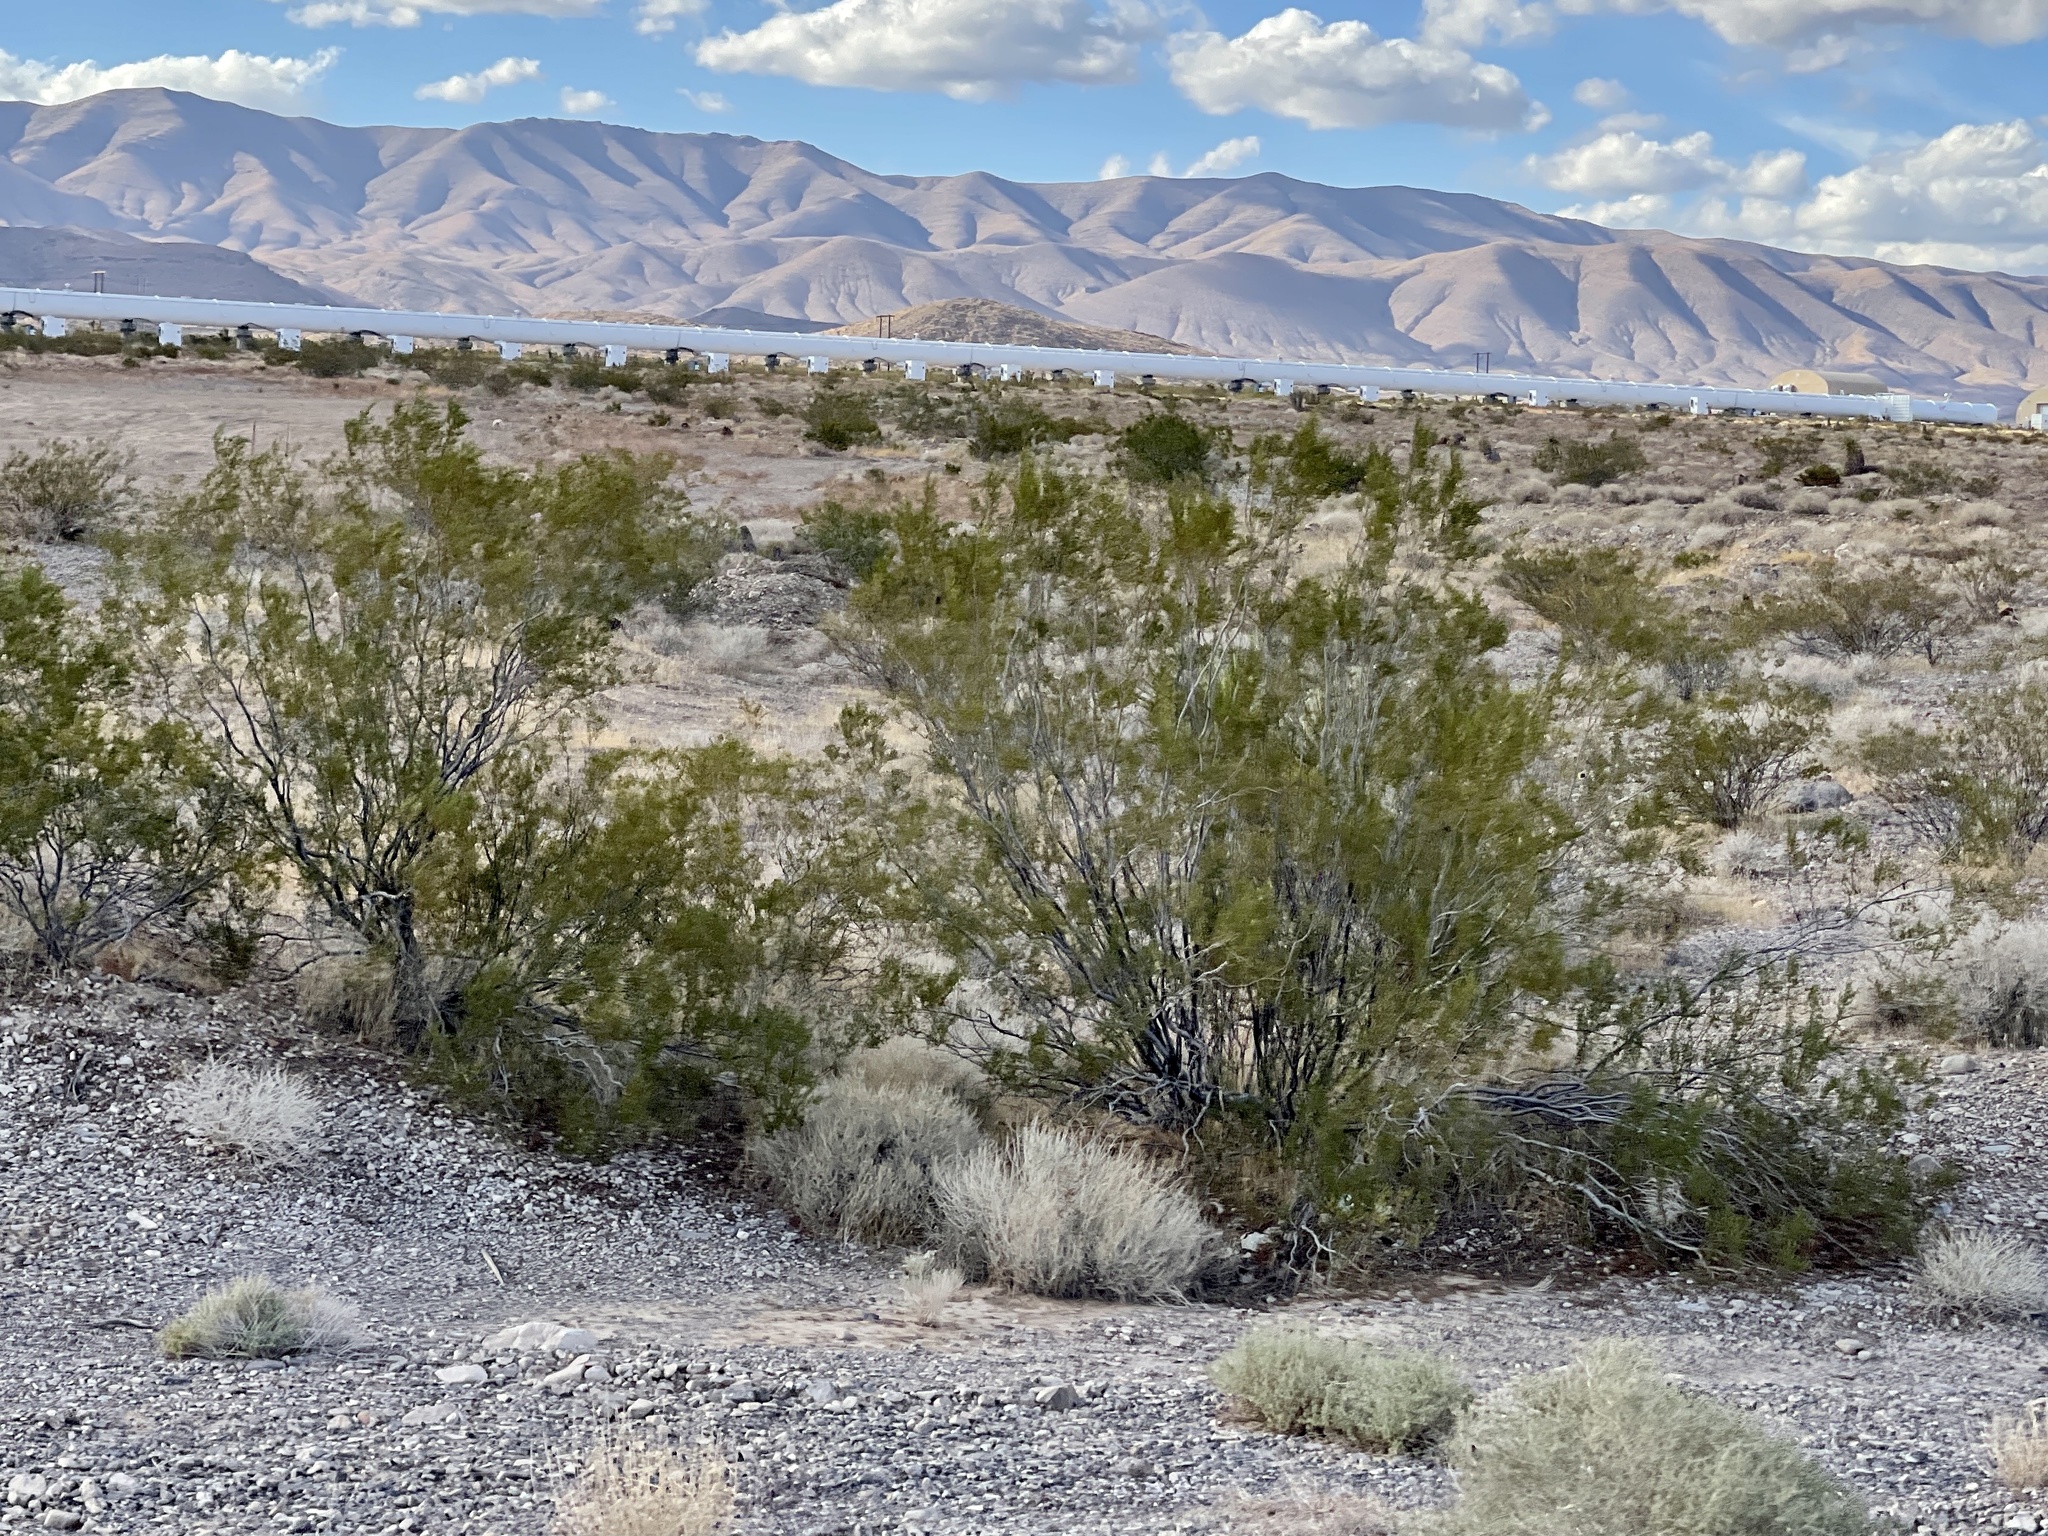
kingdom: Plantae
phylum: Tracheophyta
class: Magnoliopsida
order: Zygophyllales
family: Zygophyllaceae
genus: Larrea
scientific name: Larrea tridentata
